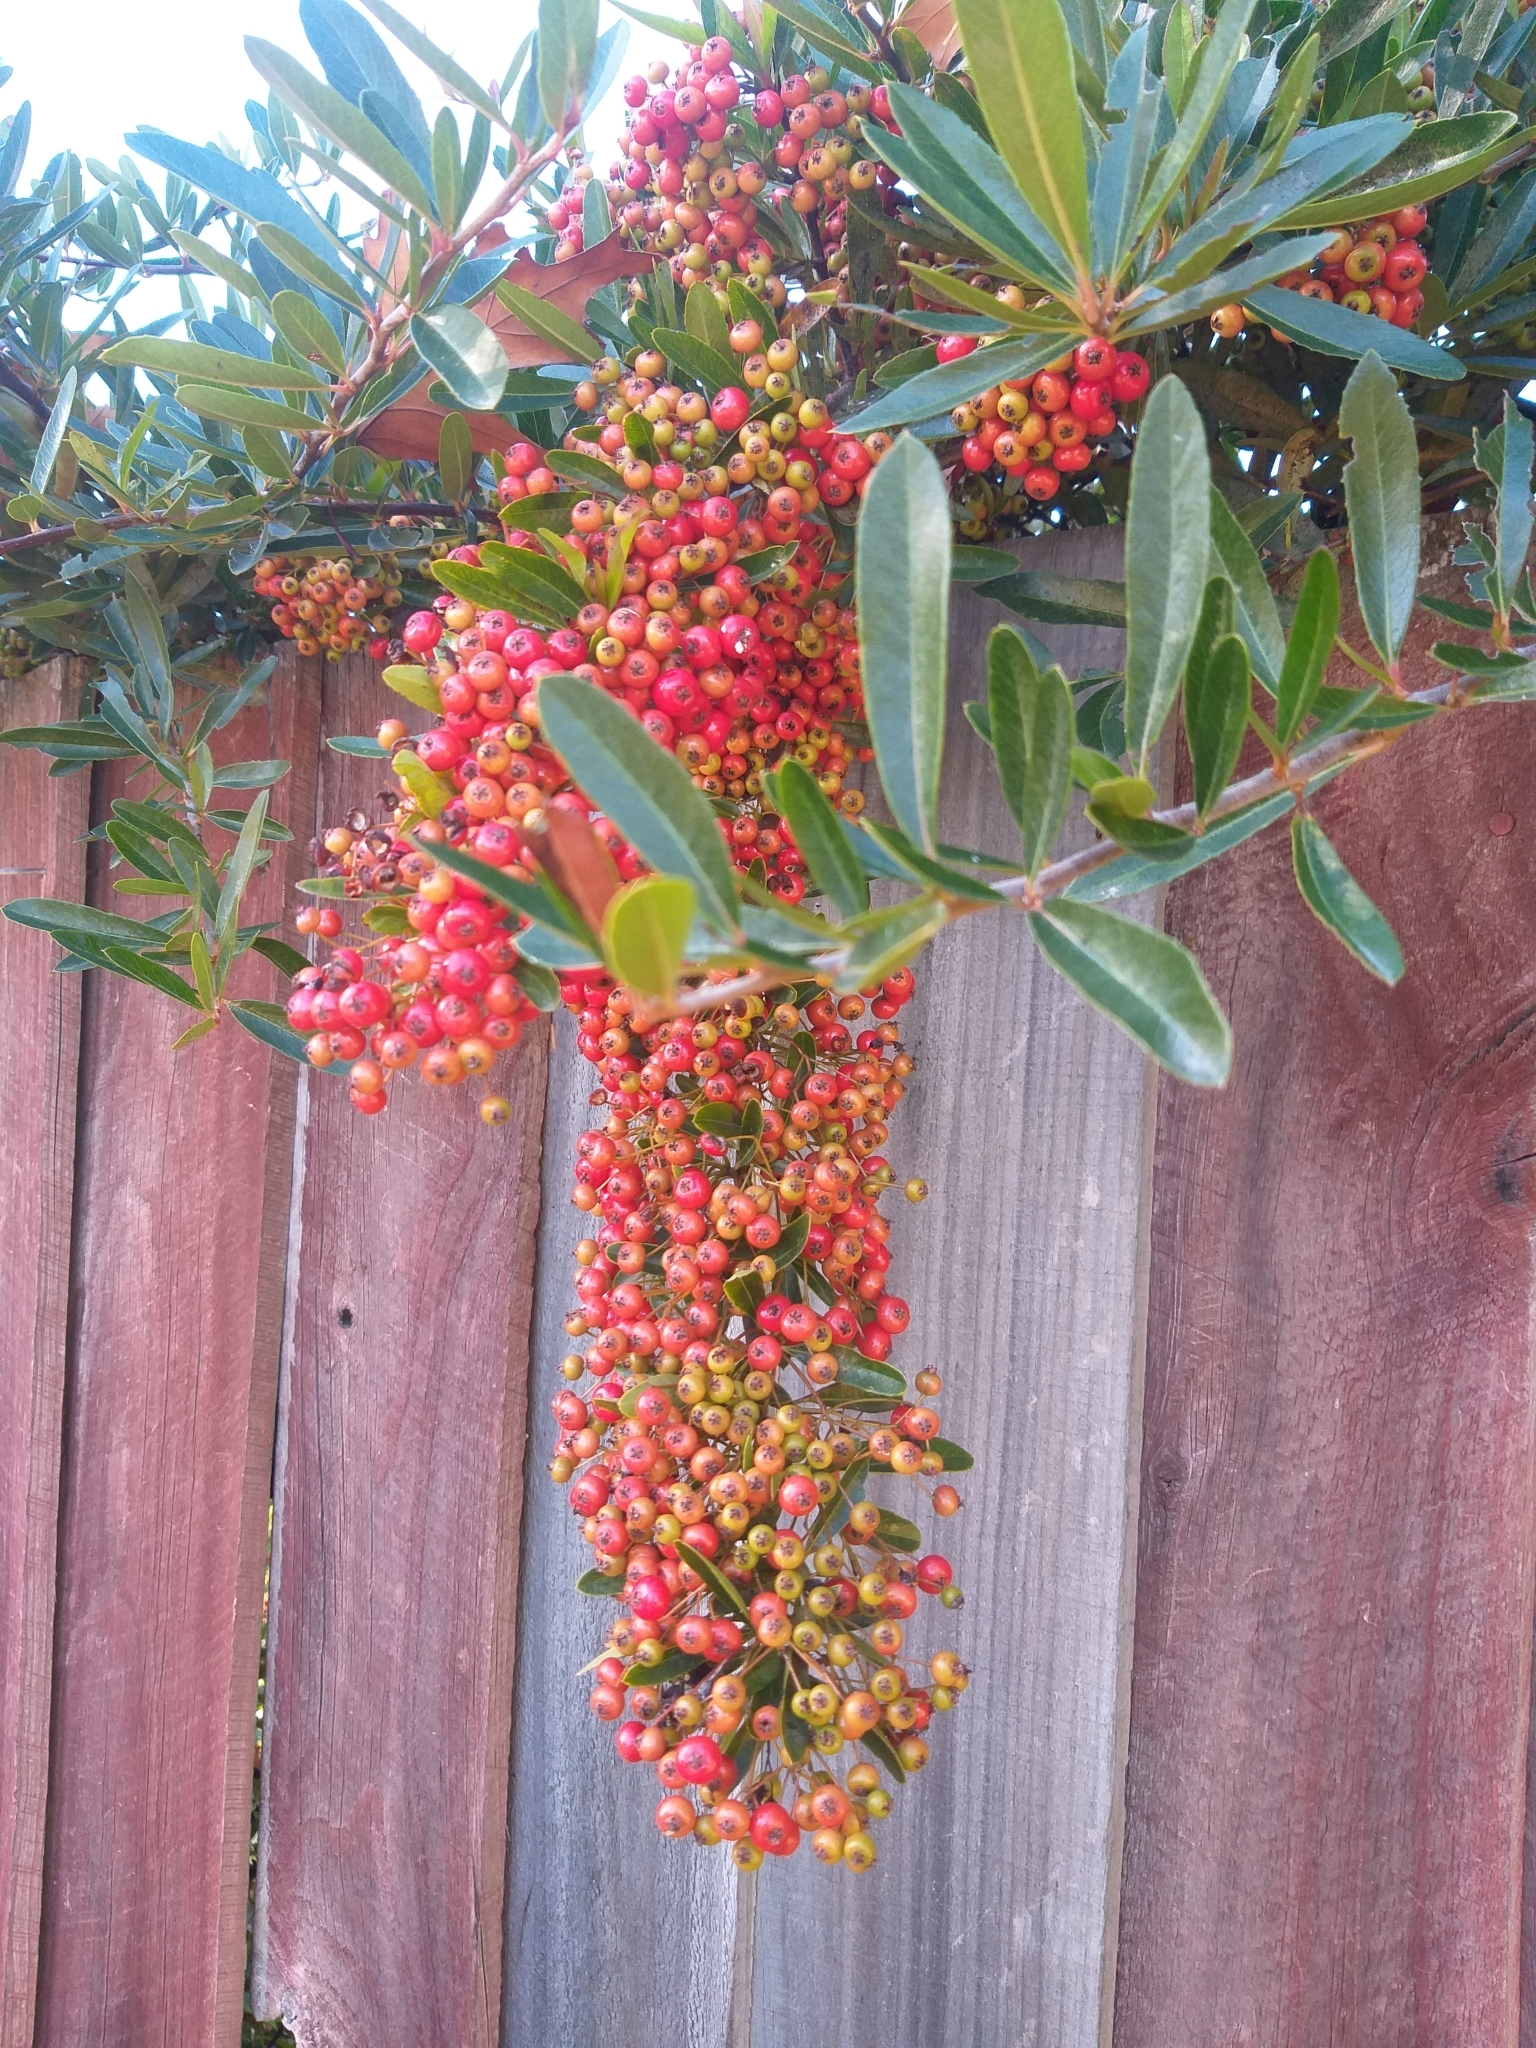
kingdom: Plantae
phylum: Tracheophyta
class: Magnoliopsida
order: Rosales
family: Rosaceae
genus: Pyracantha
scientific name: Pyracantha coccinea
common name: Firethorn
